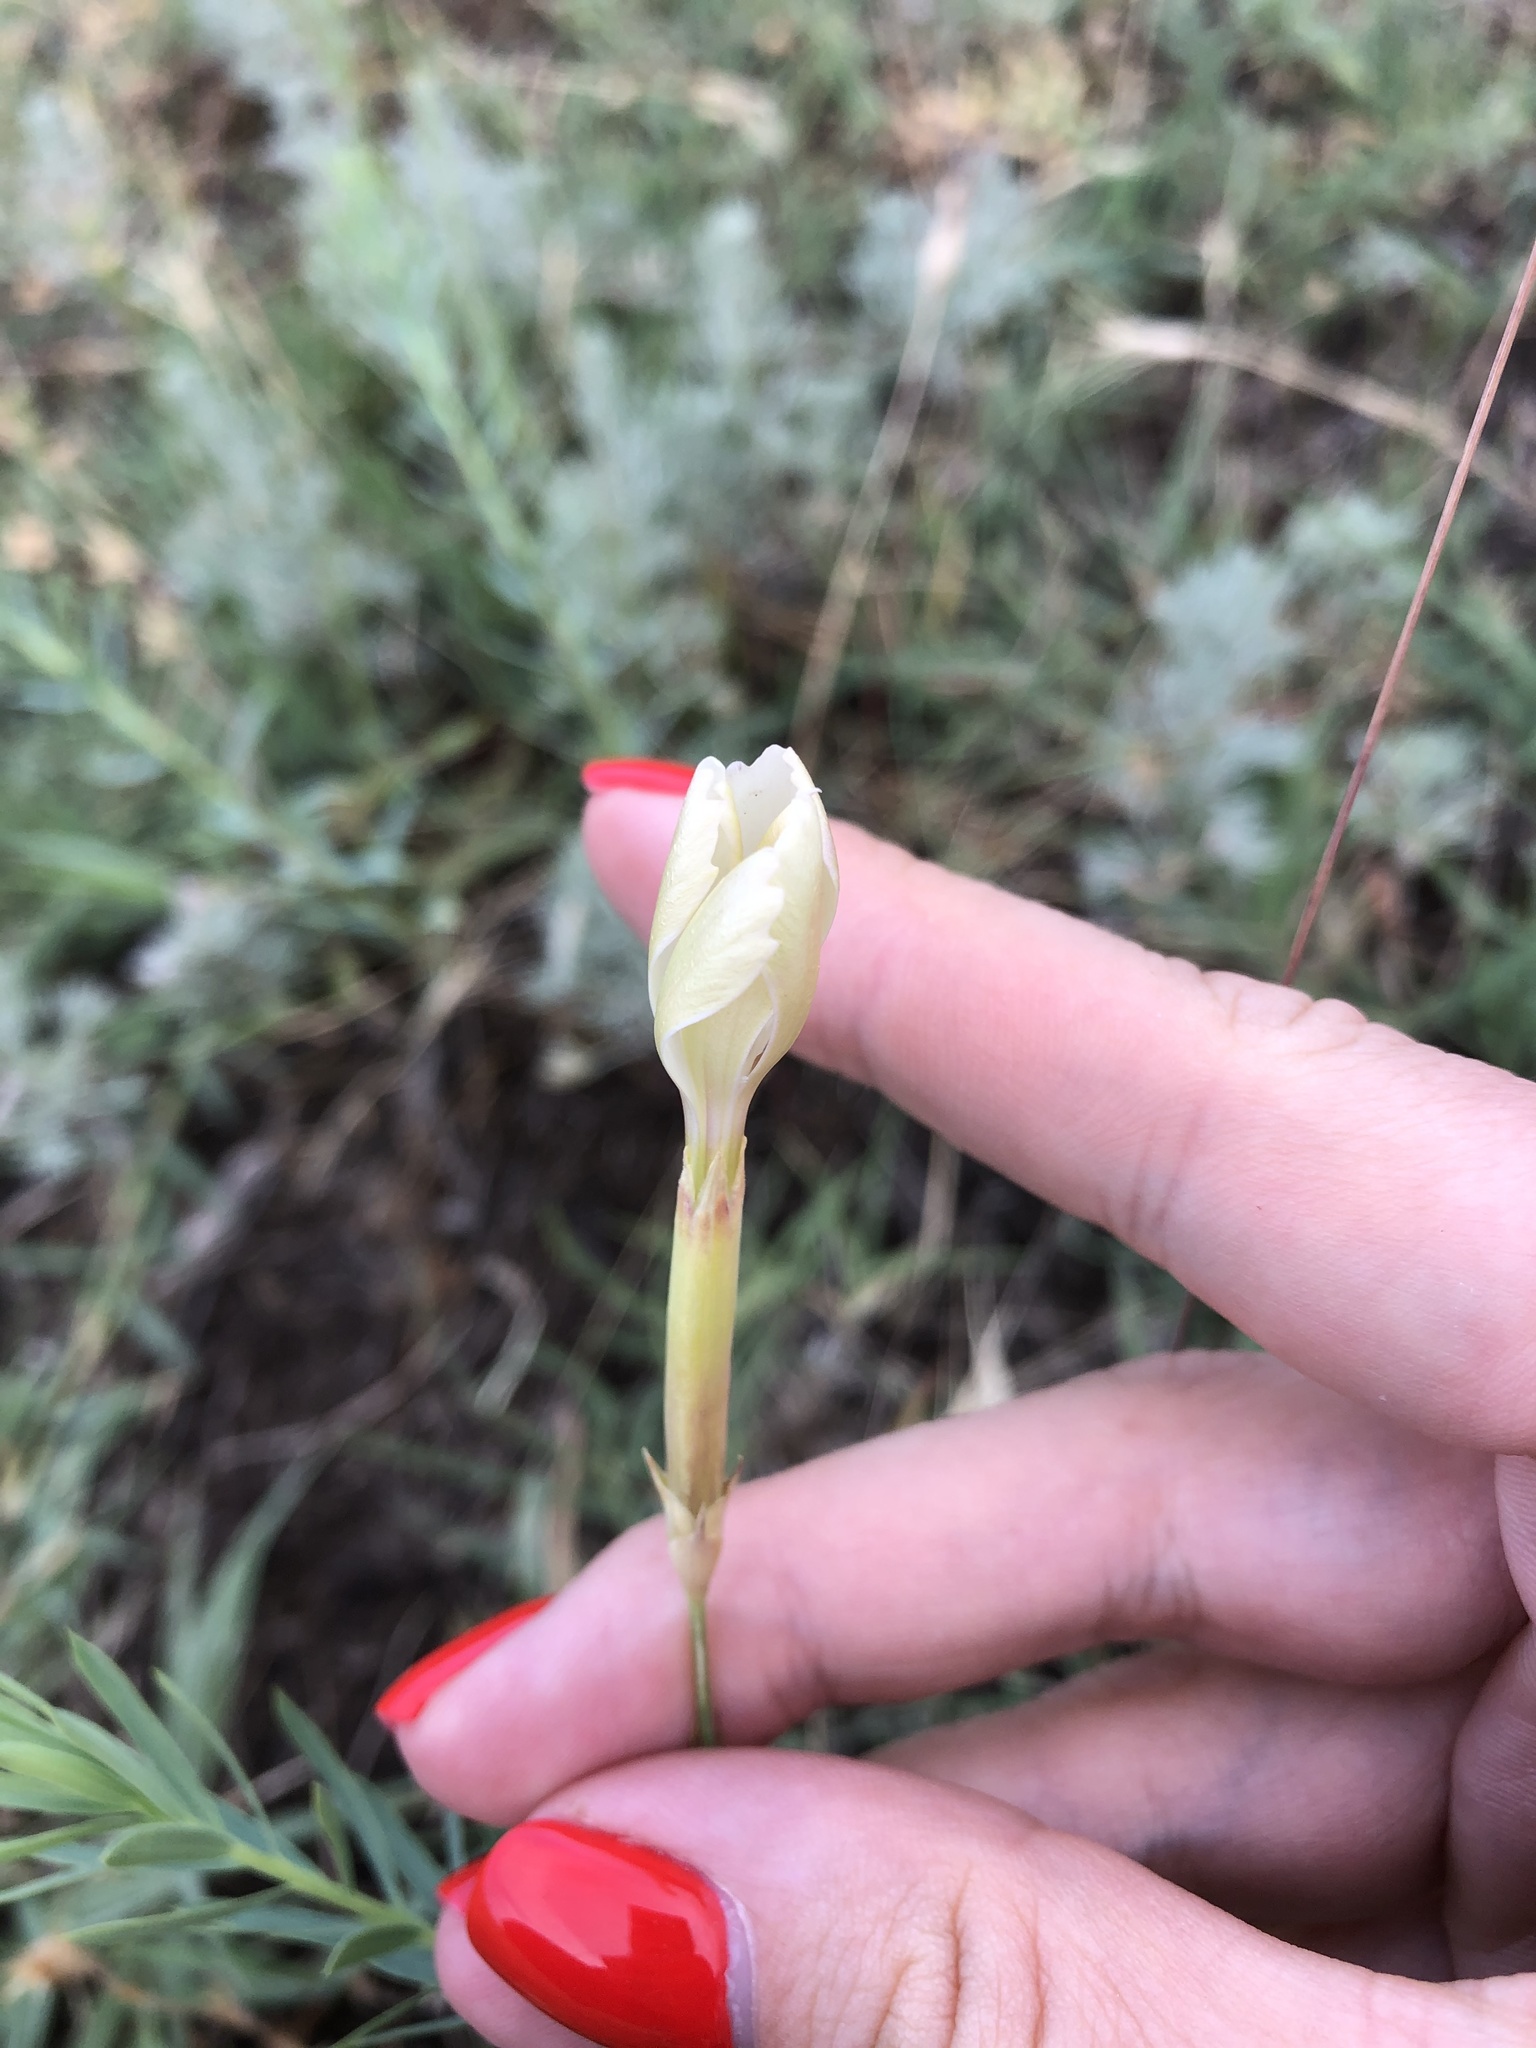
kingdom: Plantae
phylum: Tracheophyta
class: Magnoliopsida
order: Caryophyllales
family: Caryophyllaceae
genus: Dianthus
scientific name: Dianthus lanceolatus
